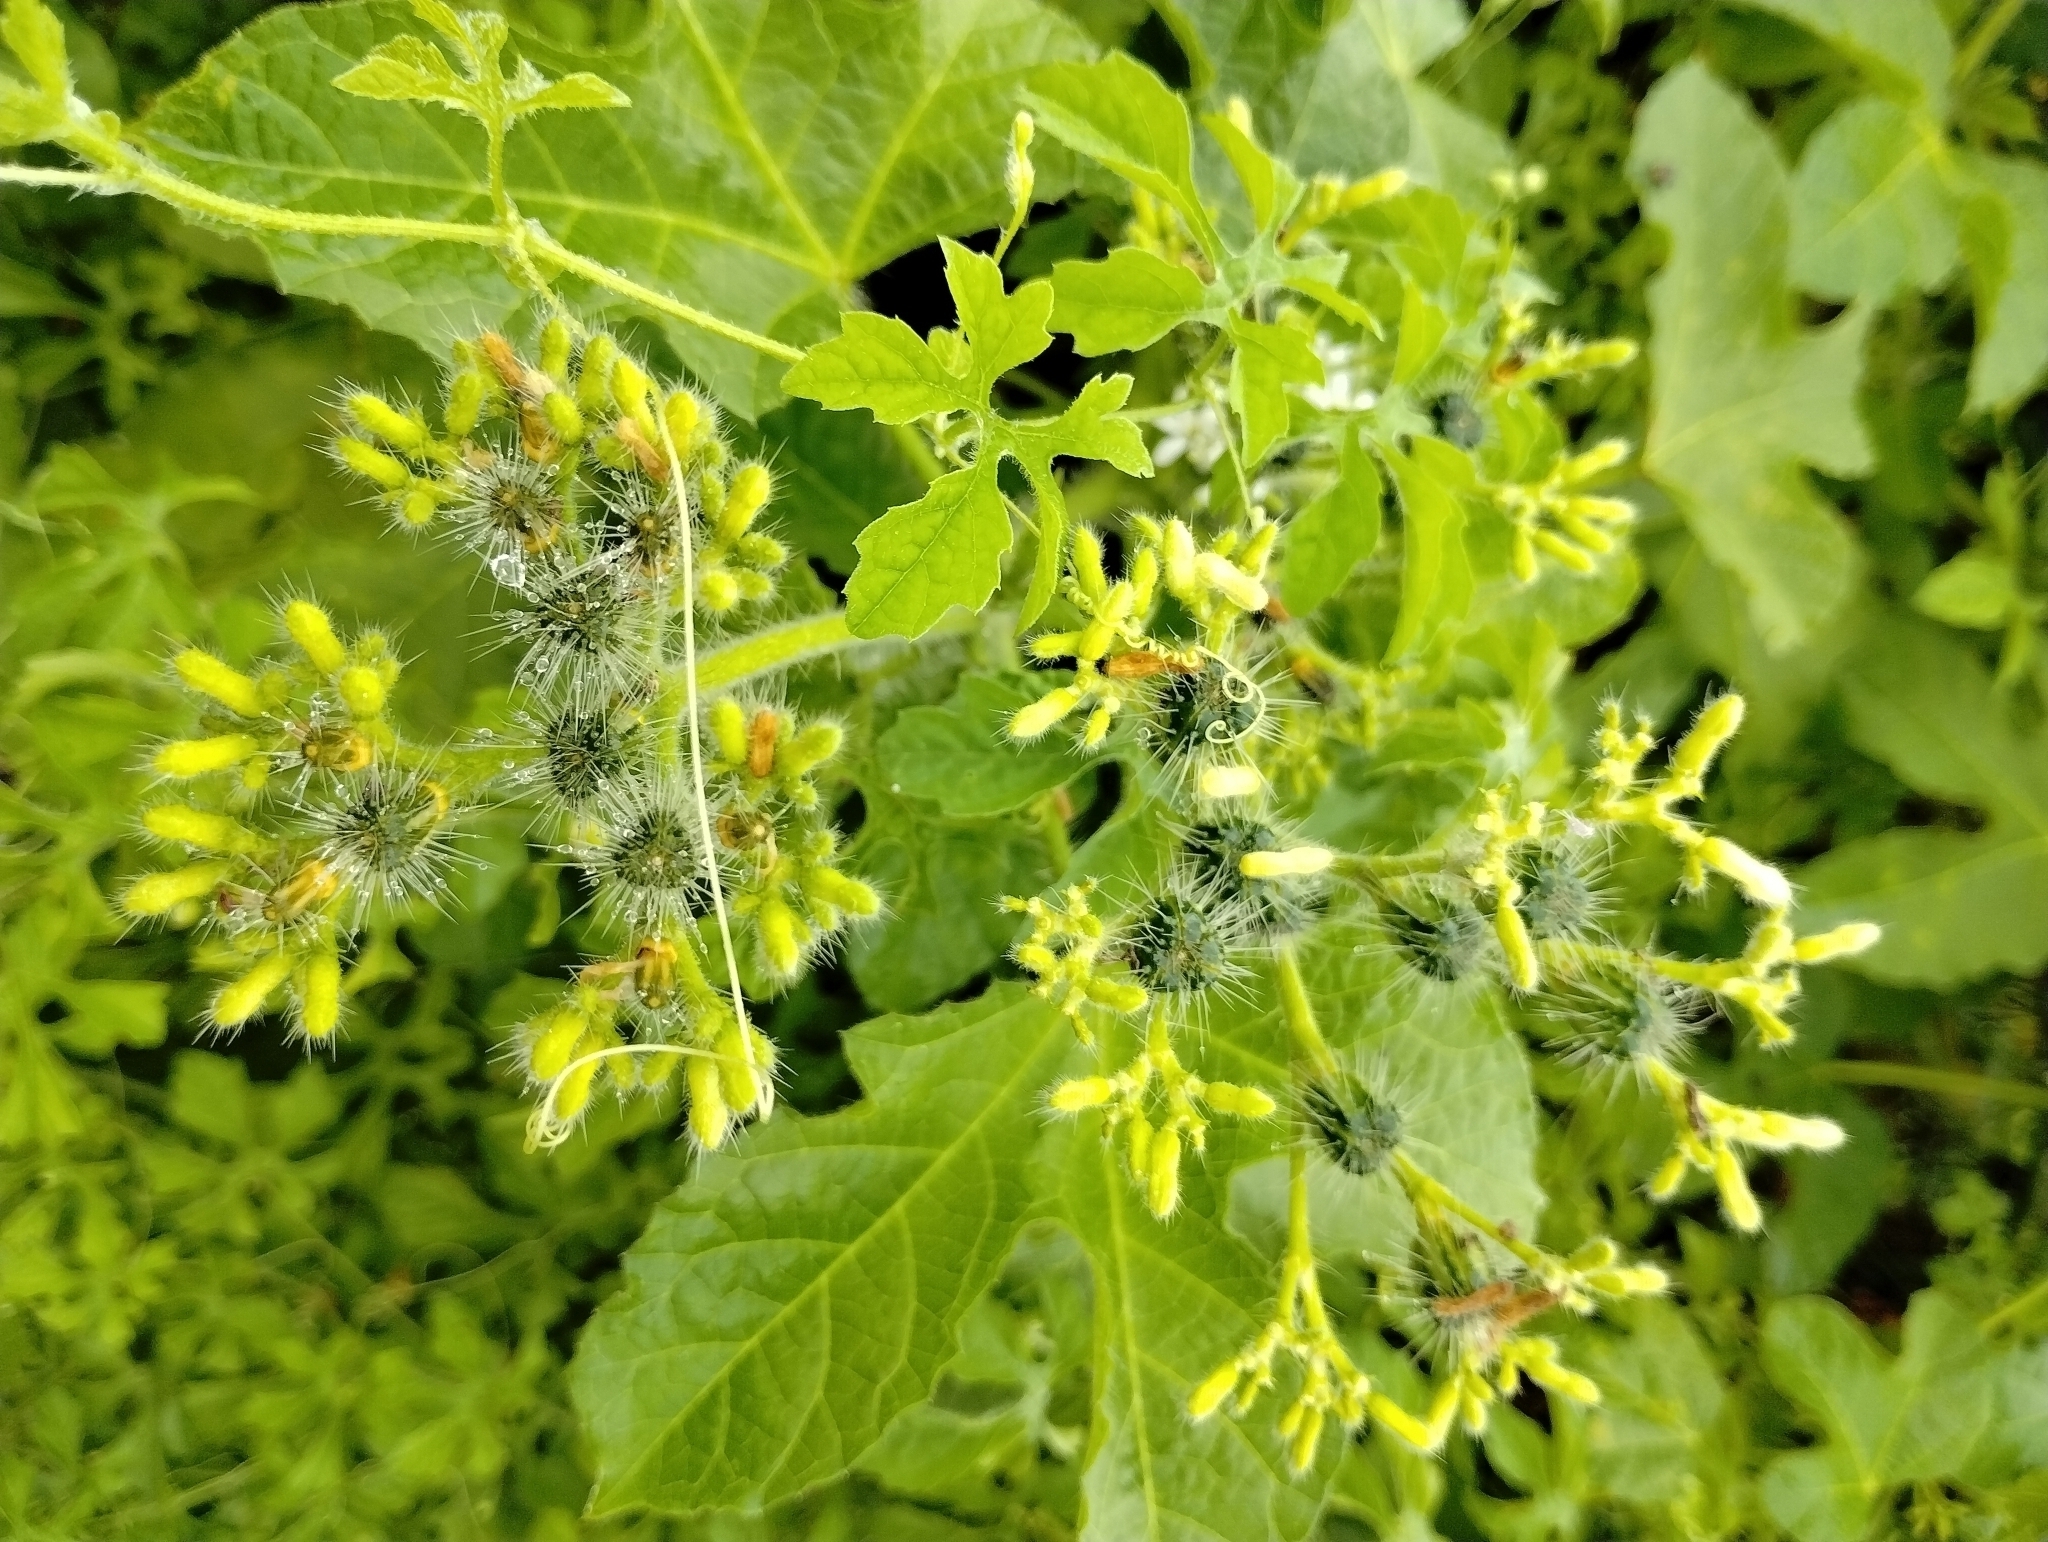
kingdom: Plantae
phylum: Tracheophyta
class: Magnoliopsida
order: Malpighiales
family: Euphorbiaceae
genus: Cnidoscolus
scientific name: Cnidoscolus urens
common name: Bull-nettle
